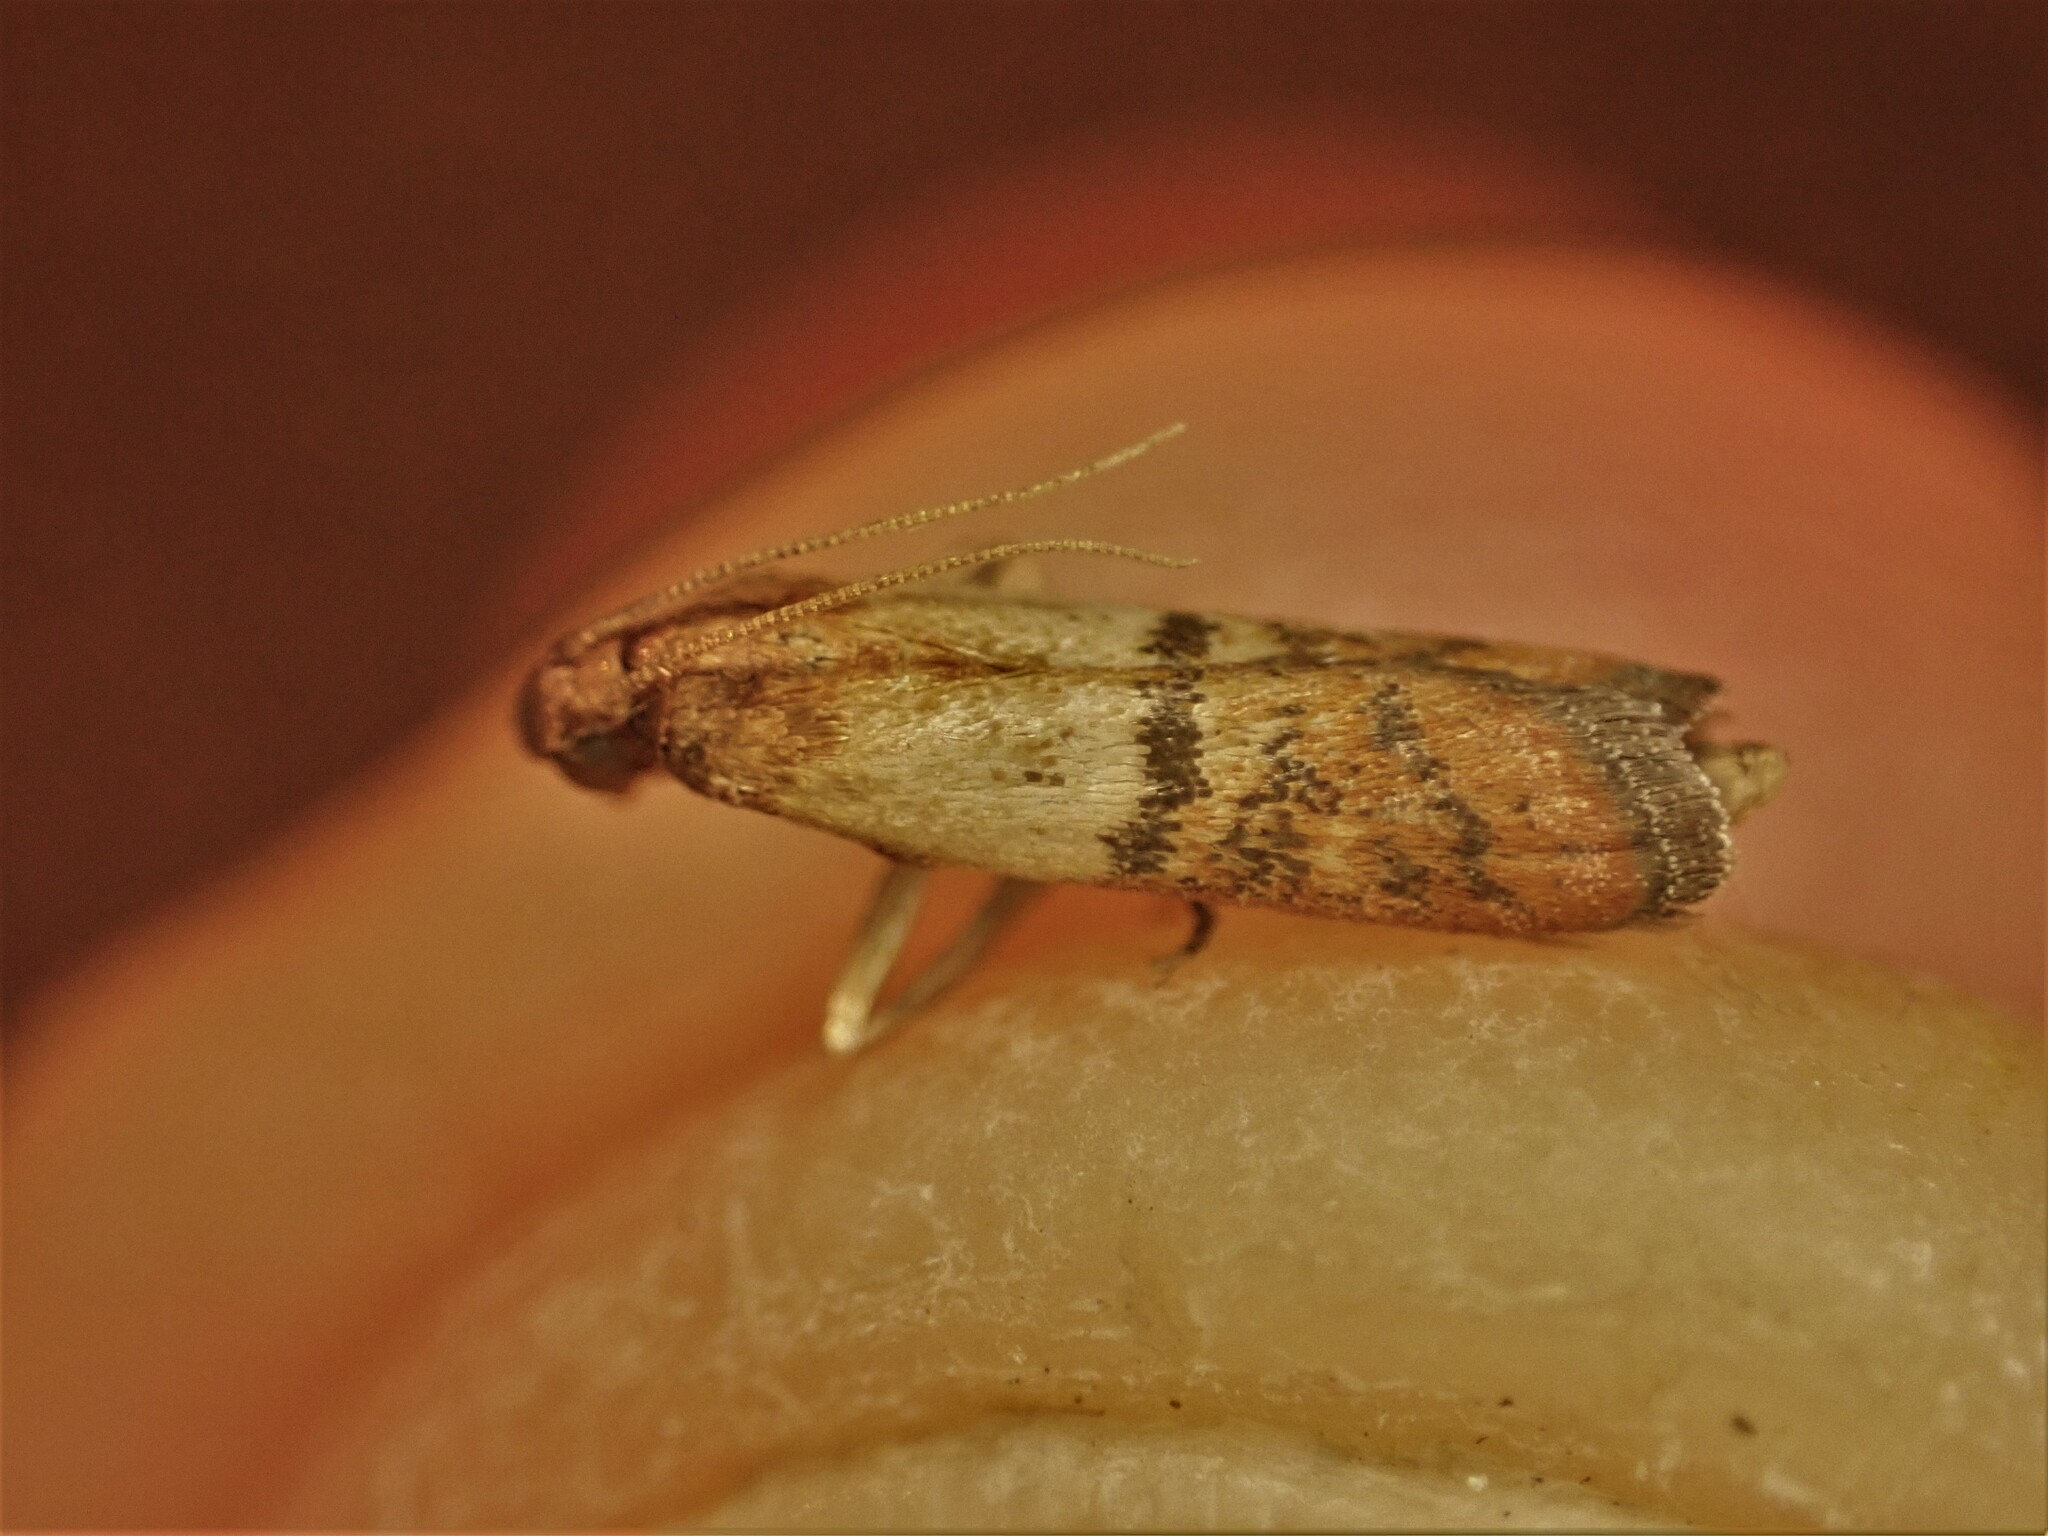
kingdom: Animalia
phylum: Arthropoda
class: Insecta
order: Lepidoptera
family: Pyralidae
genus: Plodia
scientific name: Plodia interpunctella
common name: Indian meal moth
